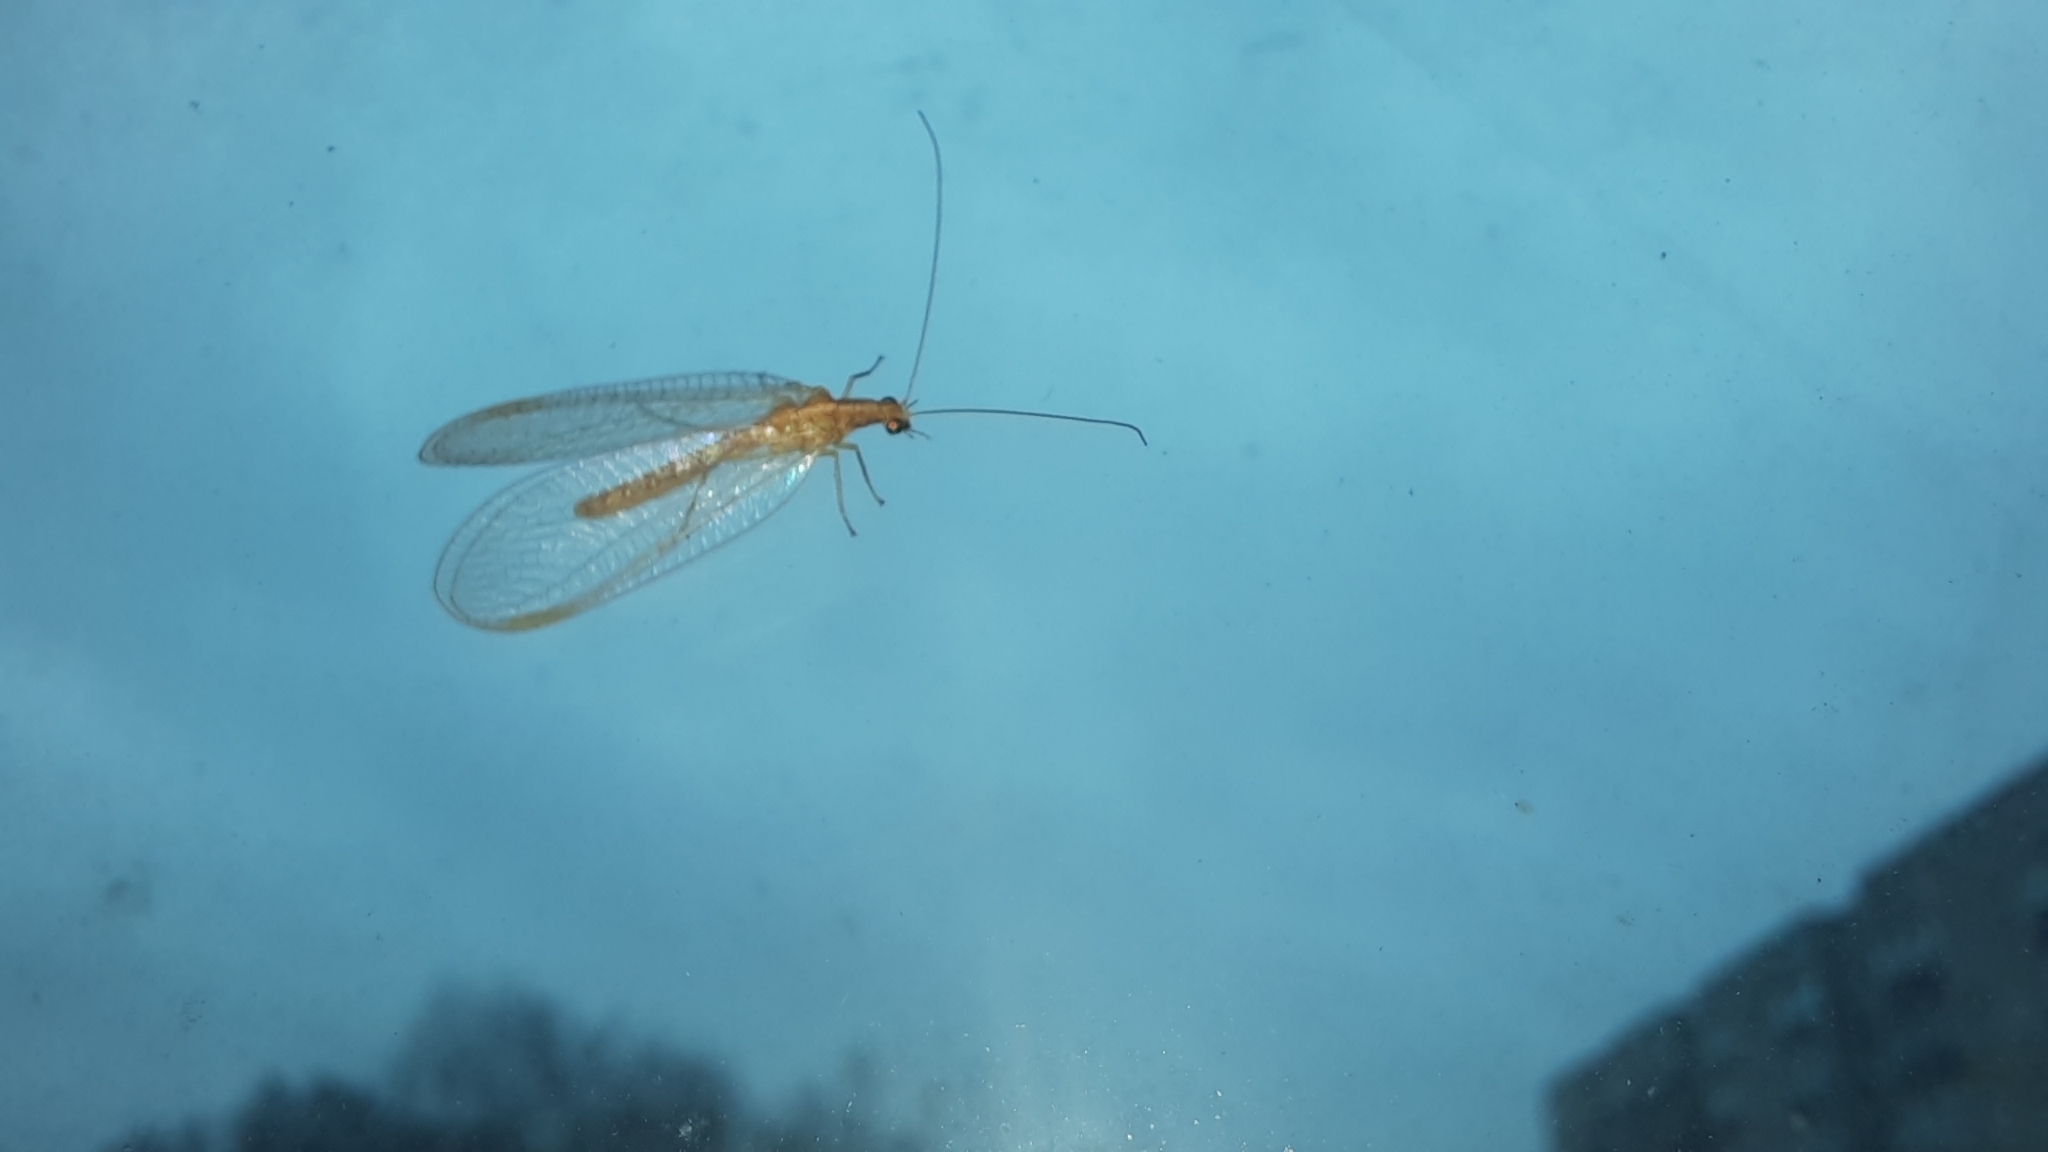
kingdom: Animalia
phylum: Arthropoda
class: Insecta
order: Neuroptera
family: Chrysopidae
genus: Chrysoperla
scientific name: Chrysoperla
